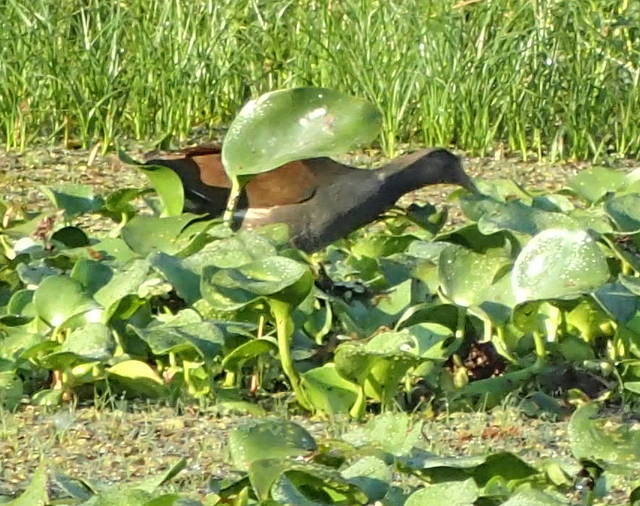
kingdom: Animalia
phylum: Chordata
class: Aves
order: Gruiformes
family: Rallidae
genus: Gallinula
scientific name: Gallinula chloropus
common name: Common moorhen
